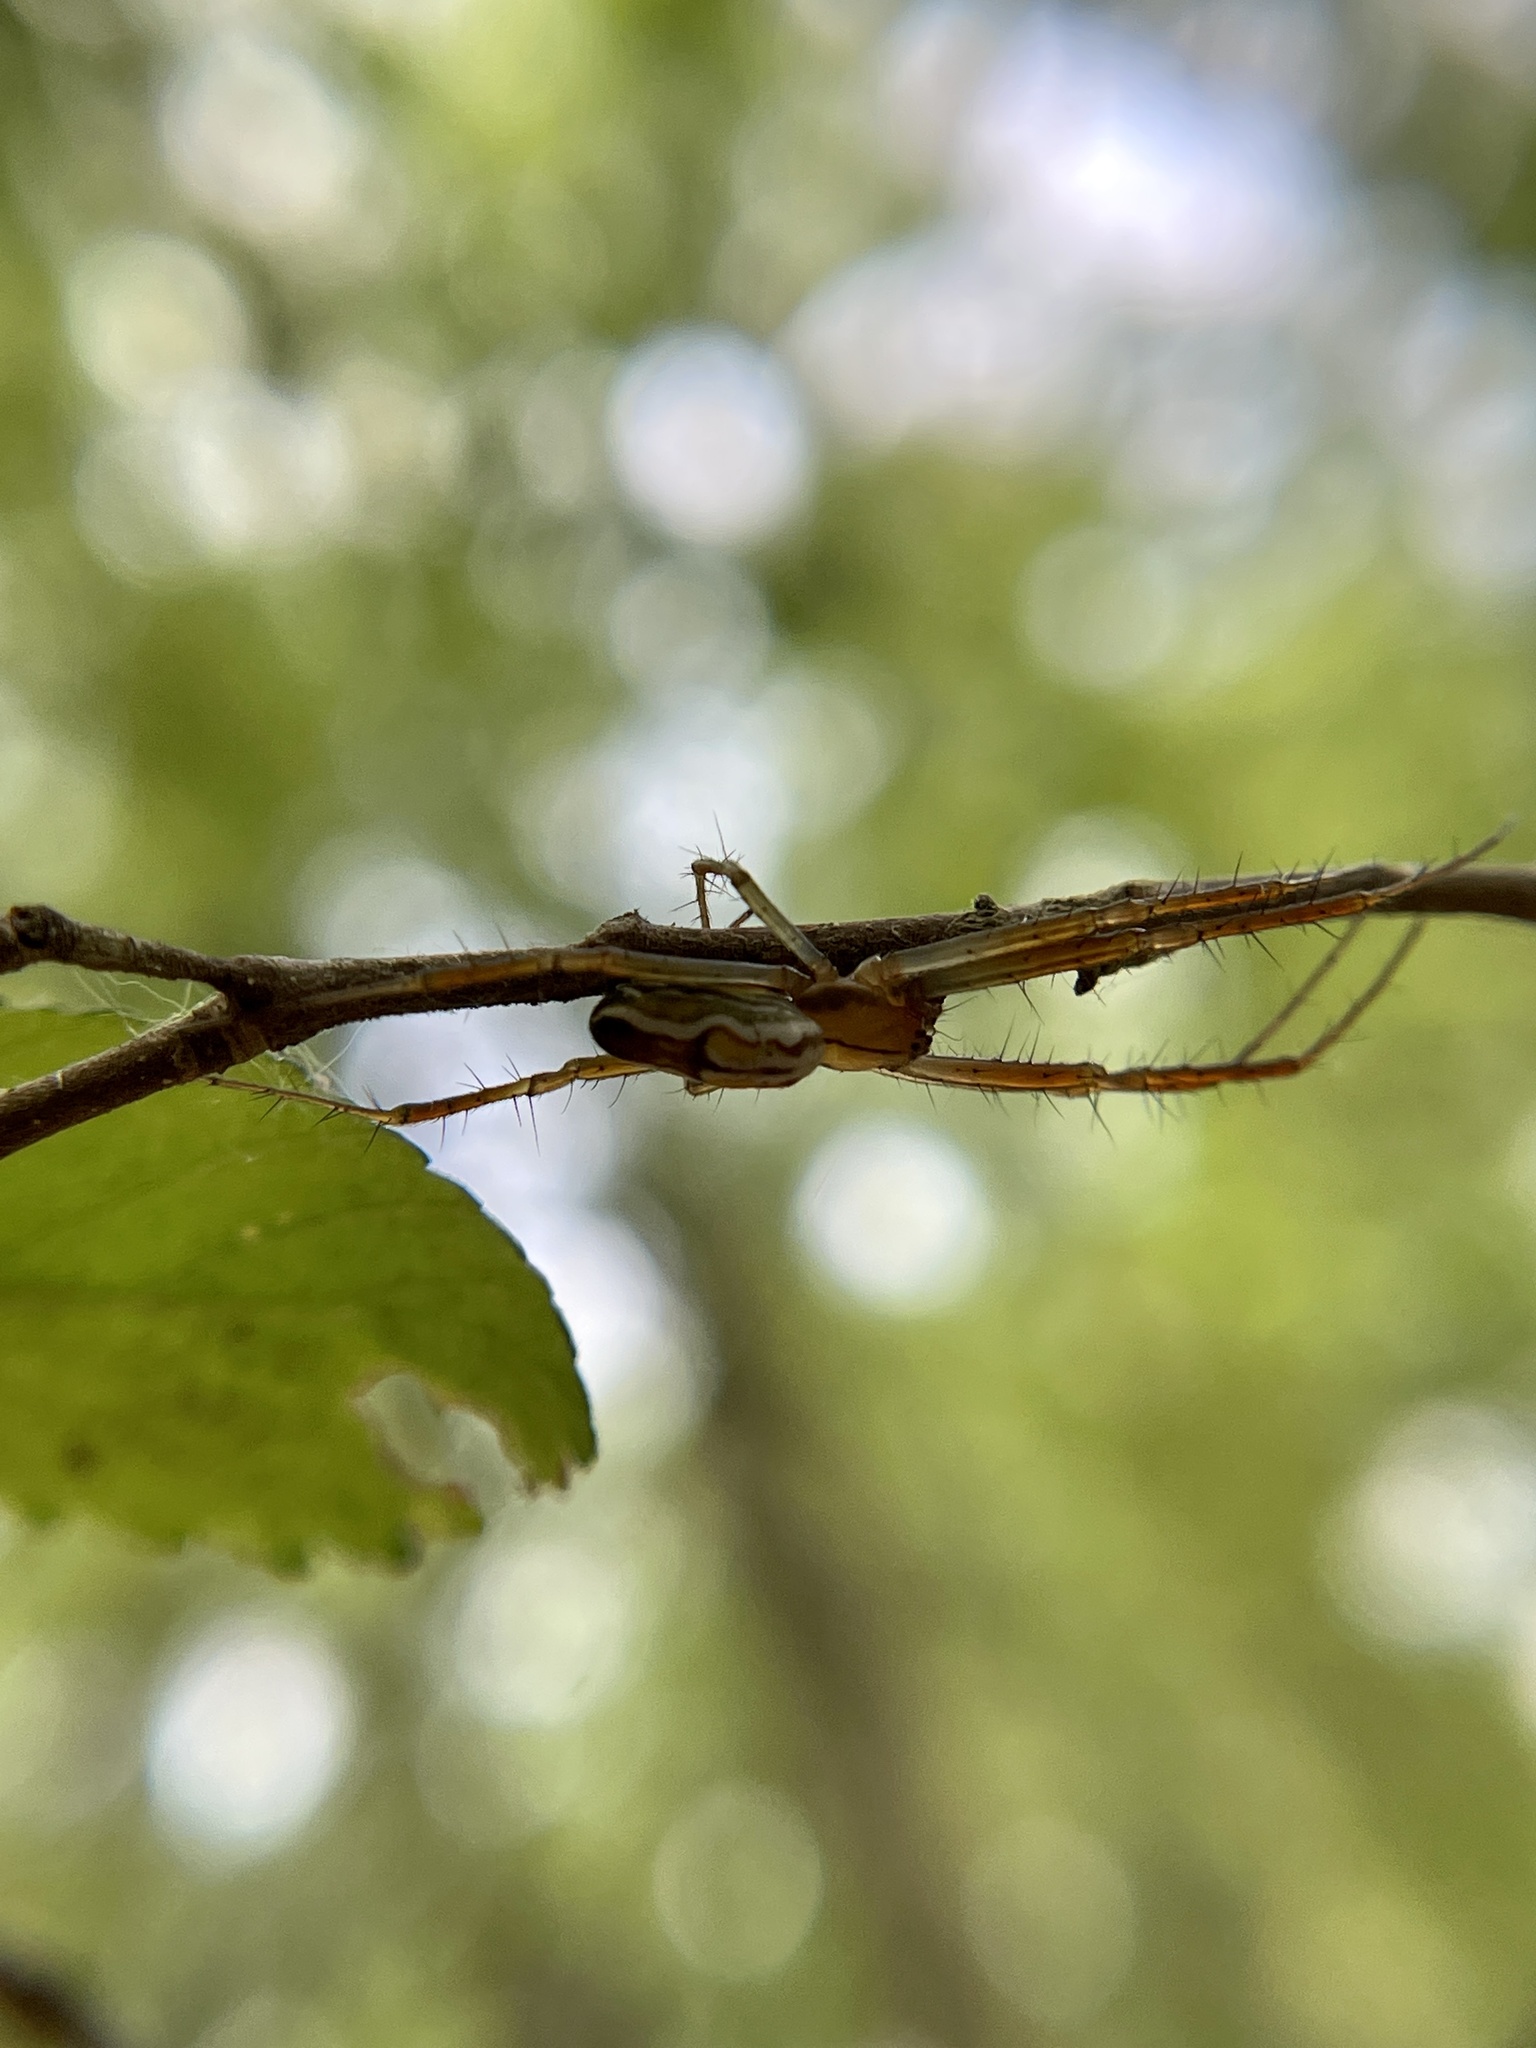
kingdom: Animalia
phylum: Arthropoda
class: Arachnida
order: Araneae
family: Araneidae
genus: Mecynogea
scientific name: Mecynogea lemniscata
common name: Orb weavers
